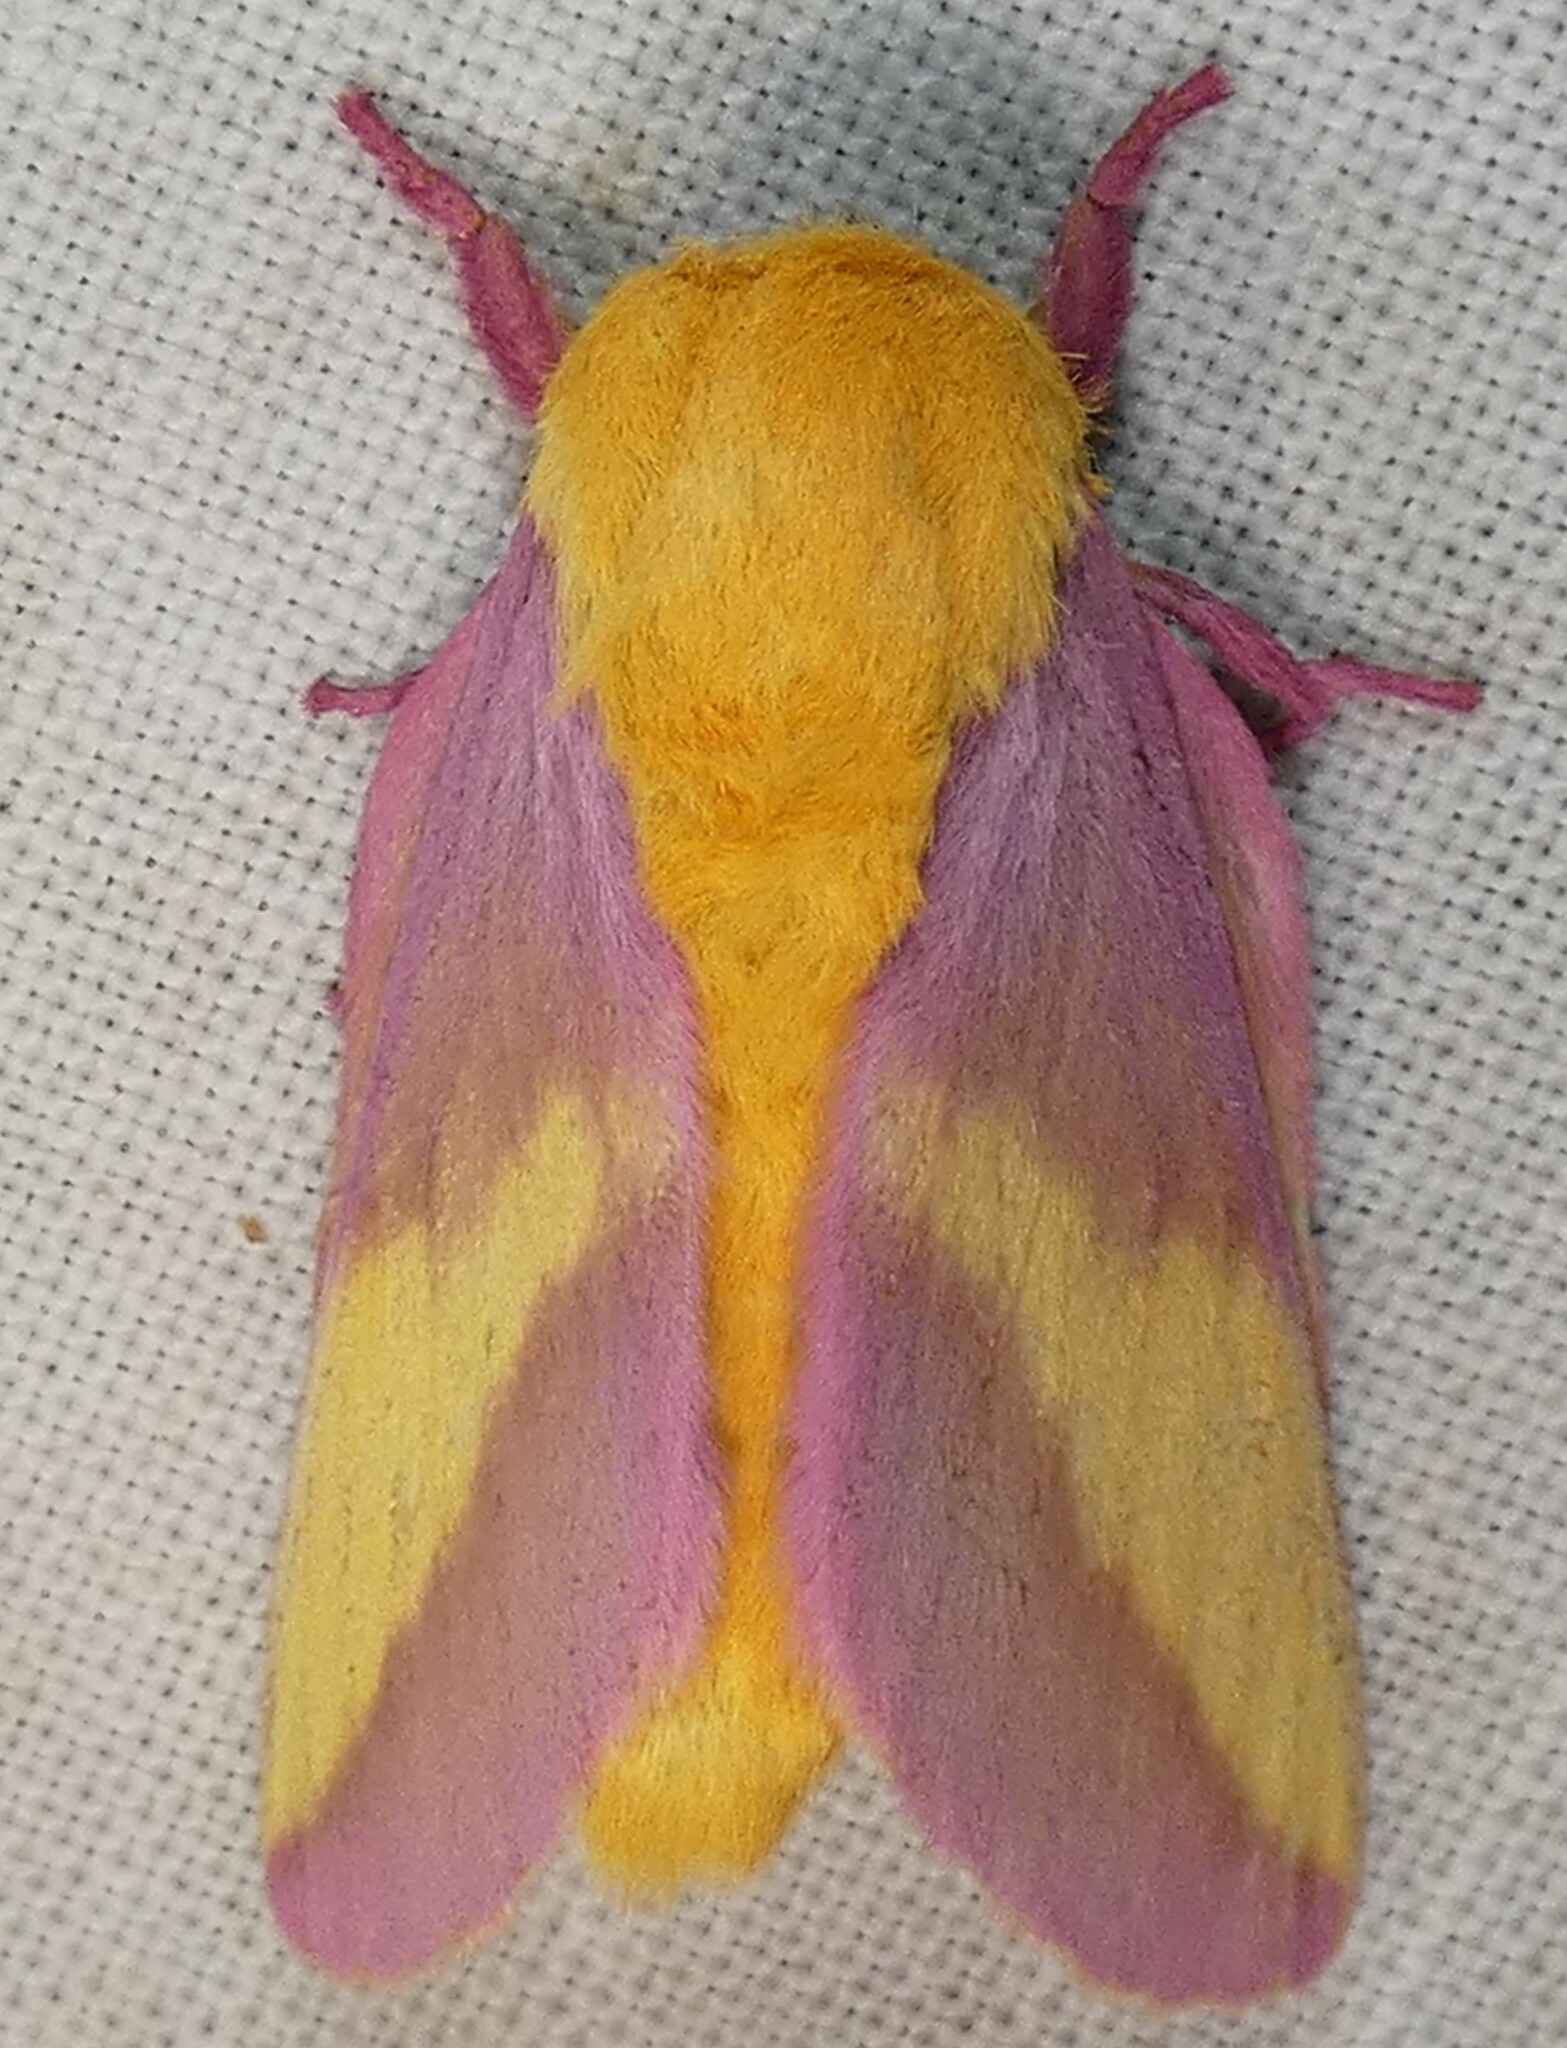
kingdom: Animalia
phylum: Arthropoda
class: Insecta
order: Lepidoptera
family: Saturniidae
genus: Dryocampa
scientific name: Dryocampa rubicunda
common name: Rosy maple moth
